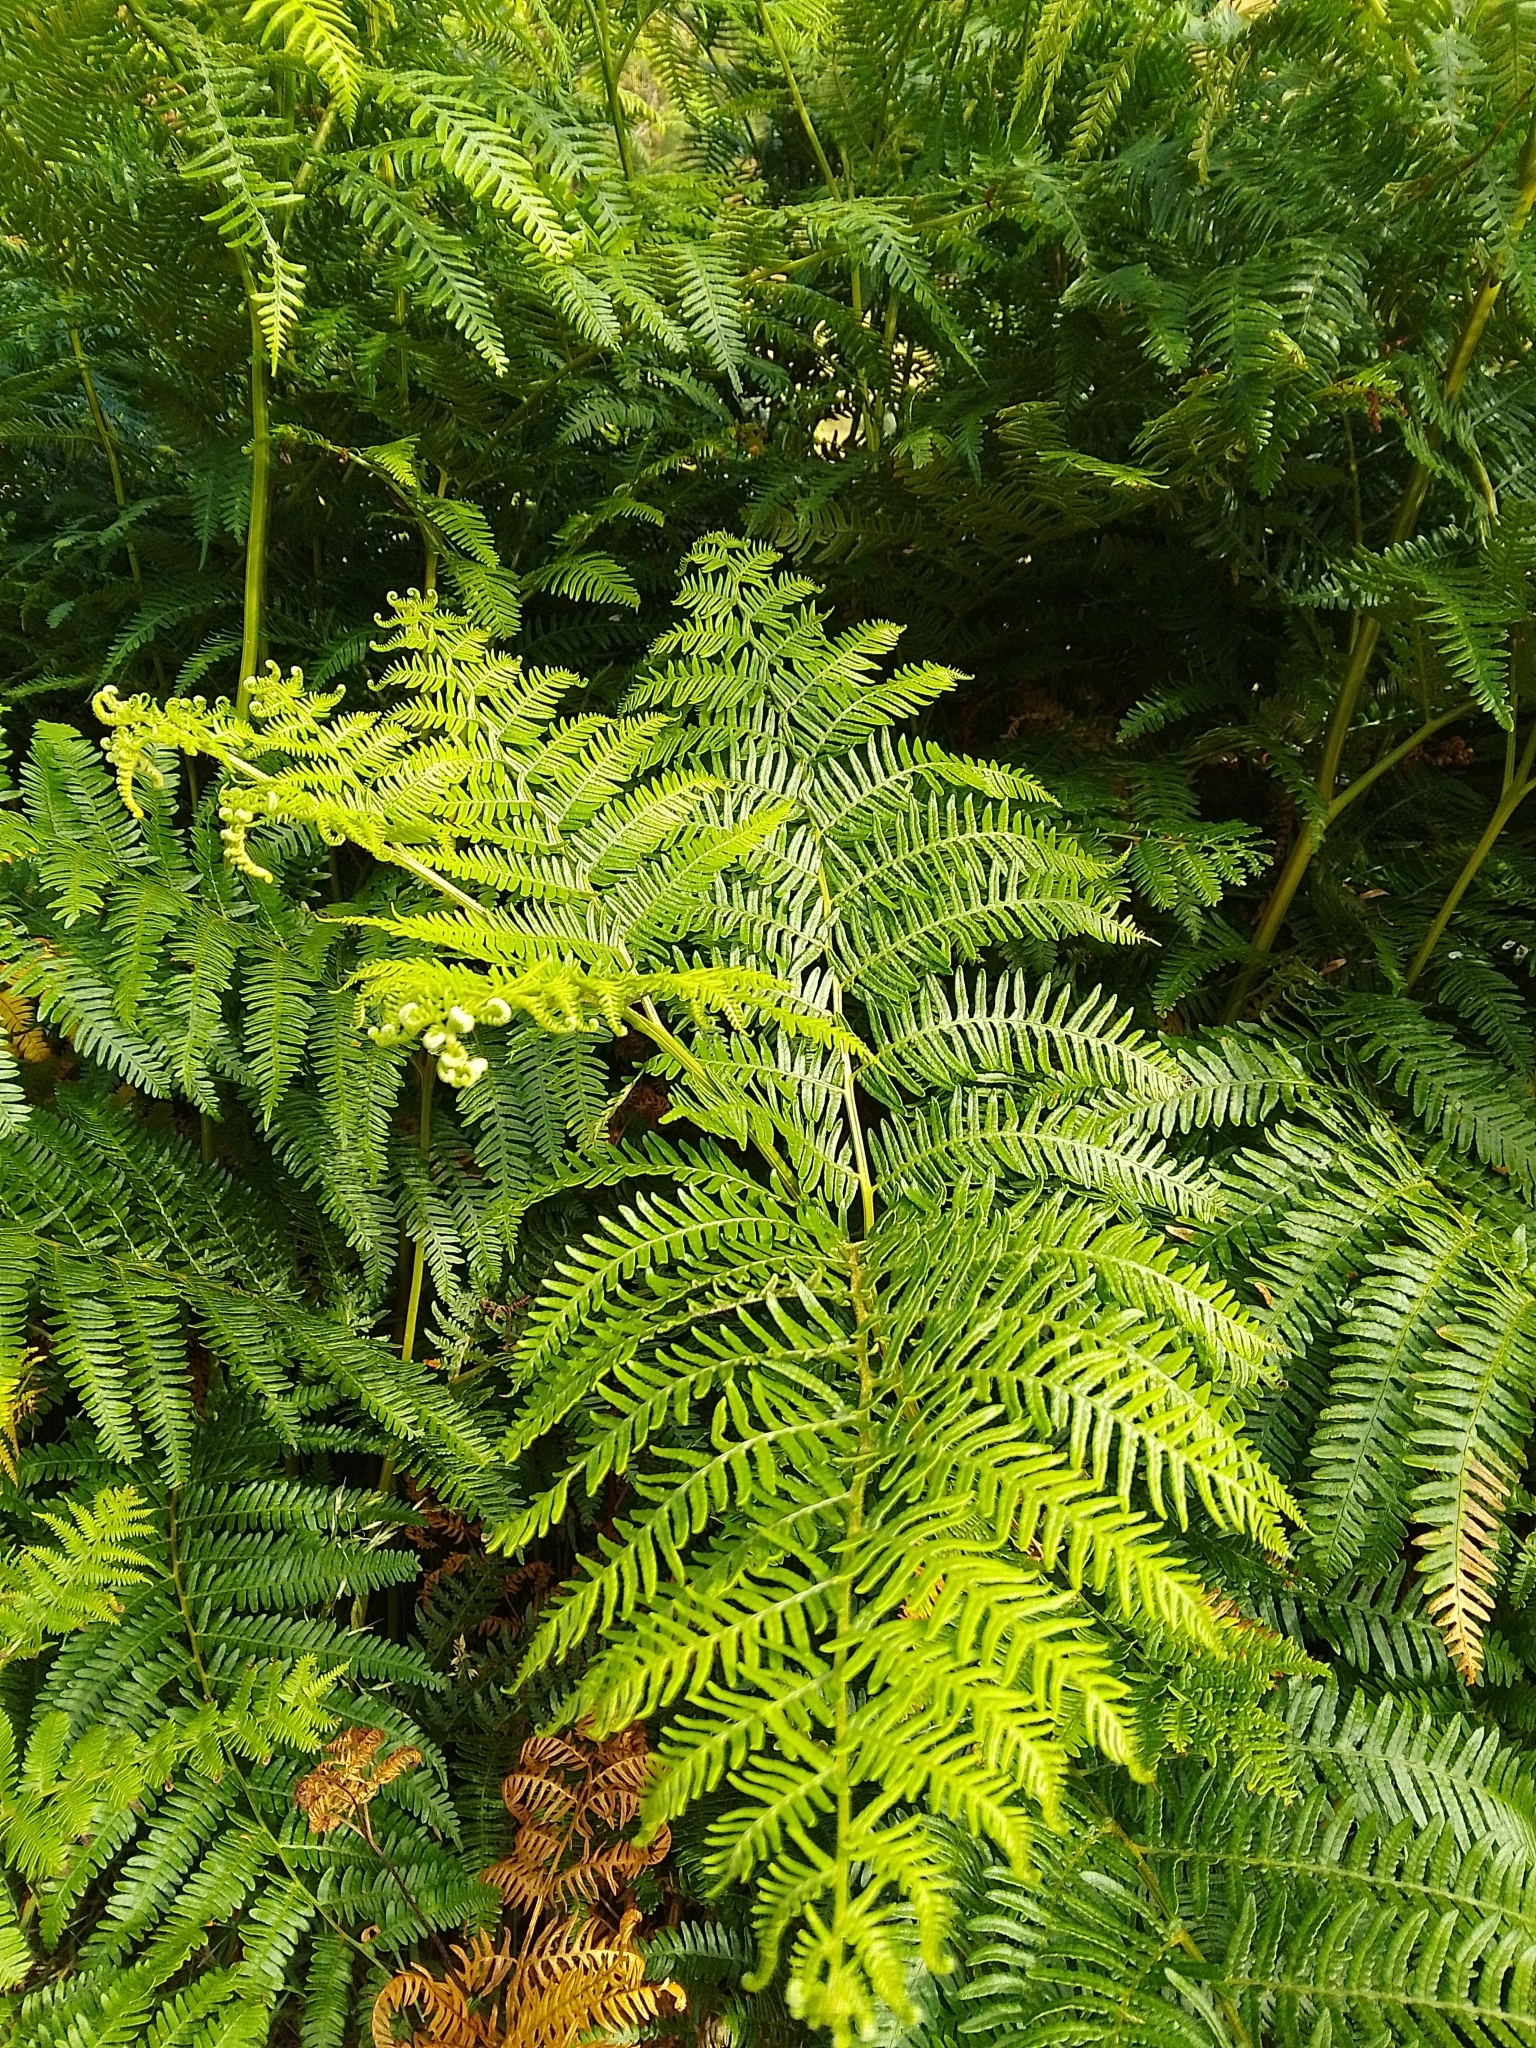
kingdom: Plantae
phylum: Tracheophyta
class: Polypodiopsida
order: Polypodiales
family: Dennstaedtiaceae
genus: Pteridium
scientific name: Pteridium aquilinum
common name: Bracken
